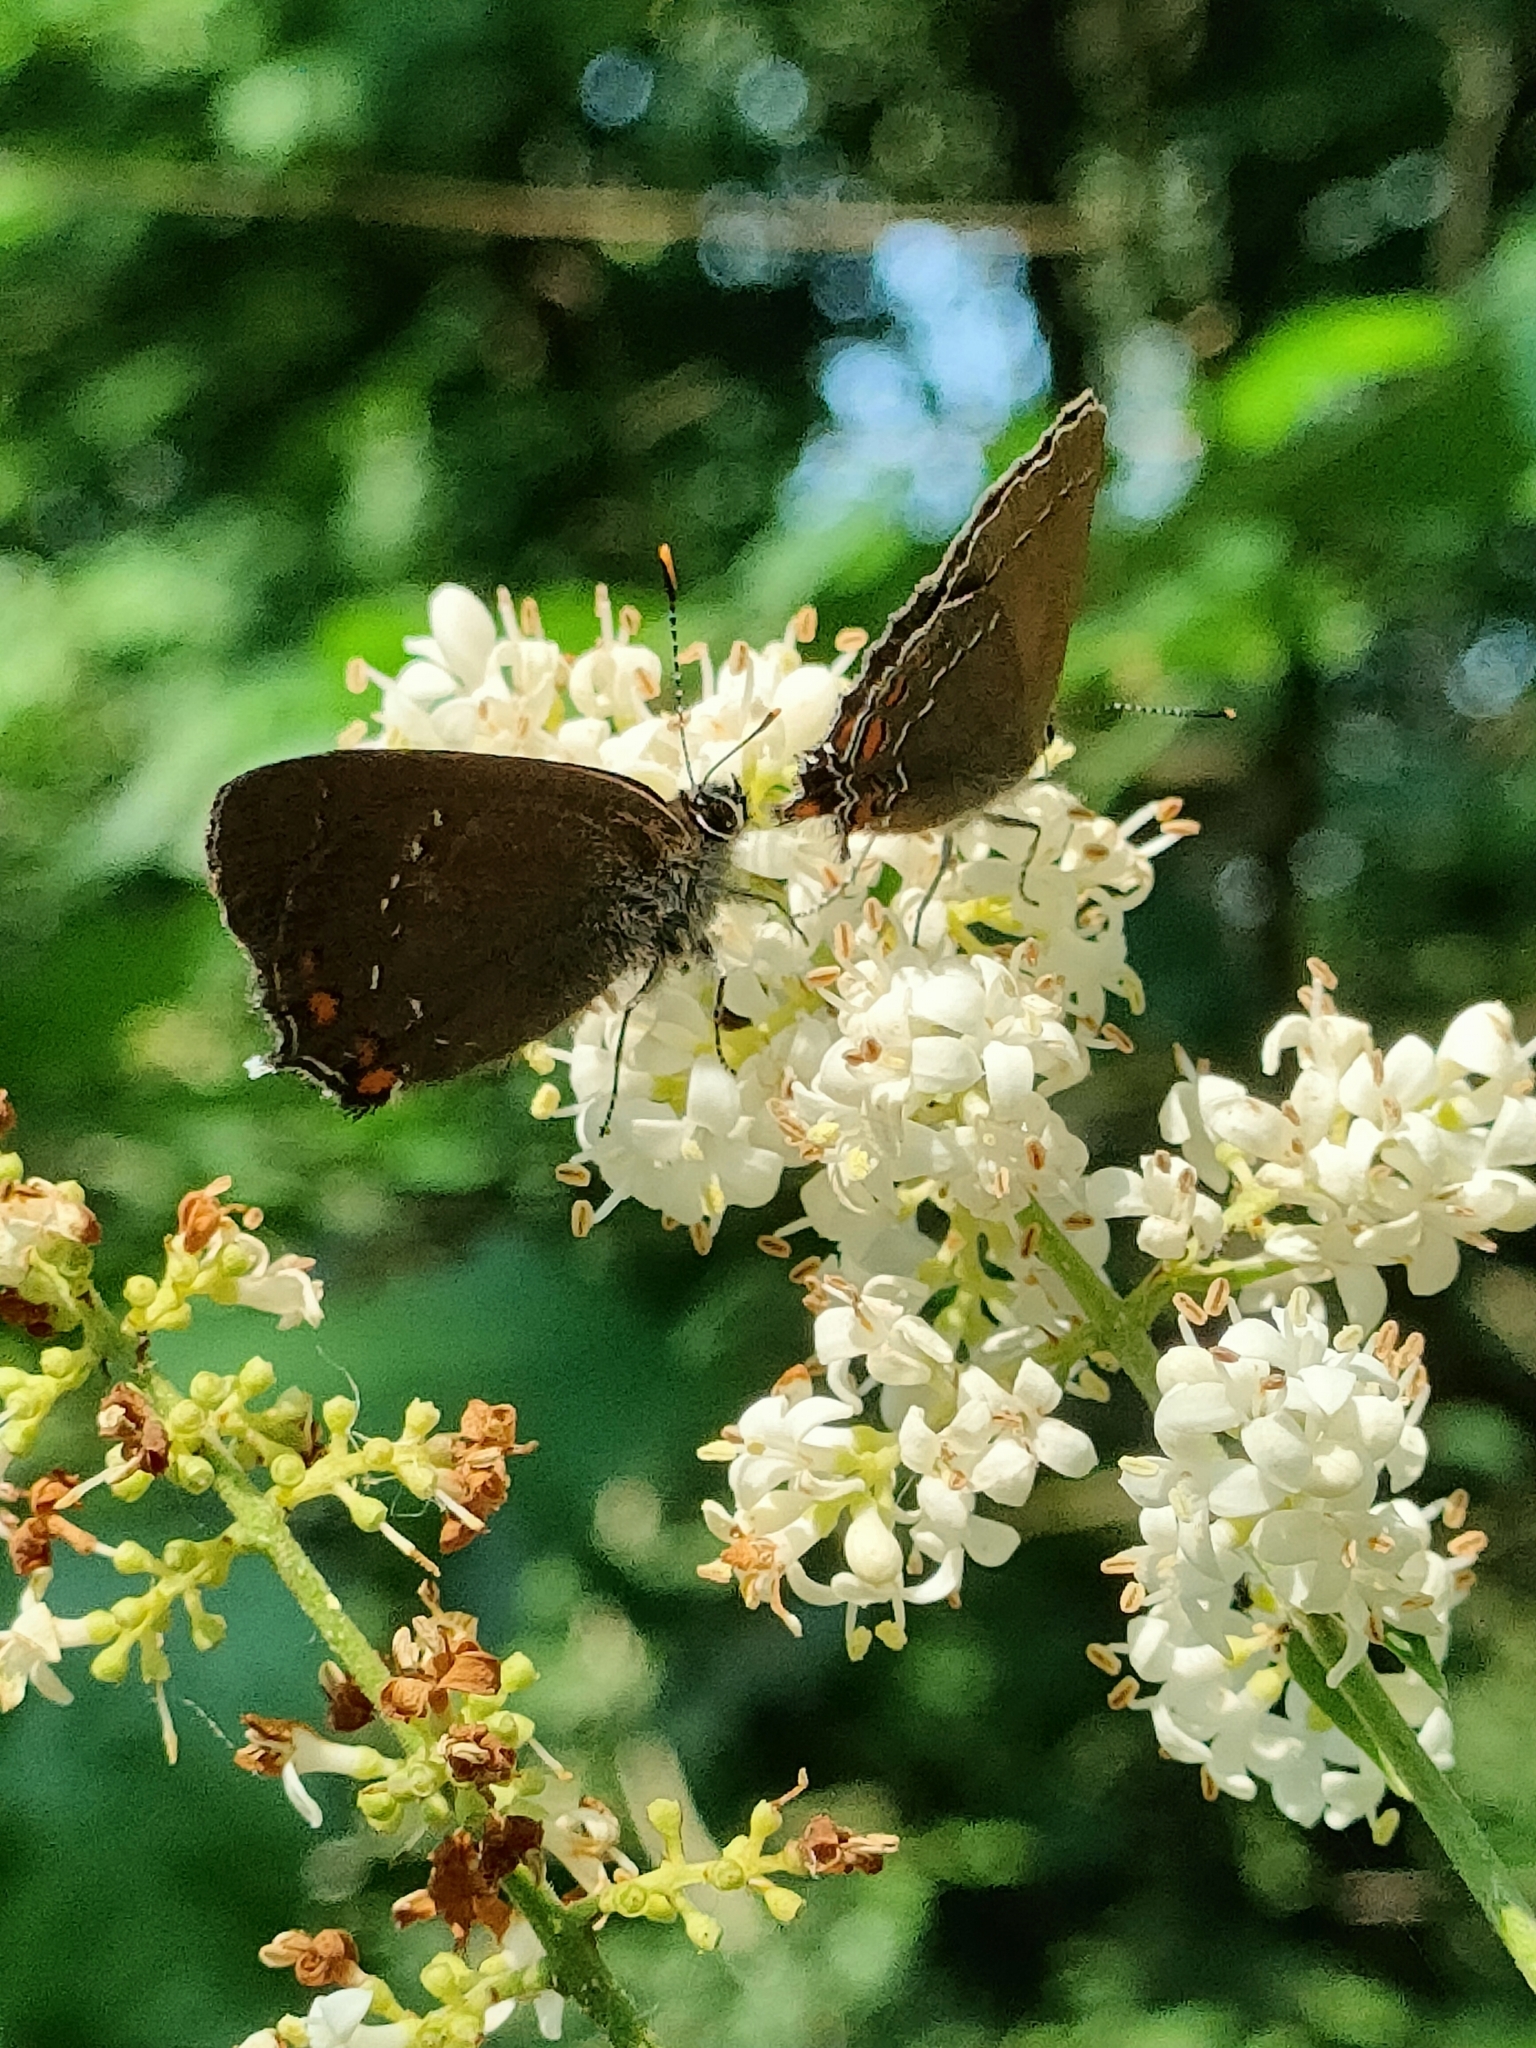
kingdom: Animalia
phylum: Arthropoda
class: Insecta
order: Lepidoptera
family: Lycaenidae
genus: Nordmannia
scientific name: Nordmannia ilicis
